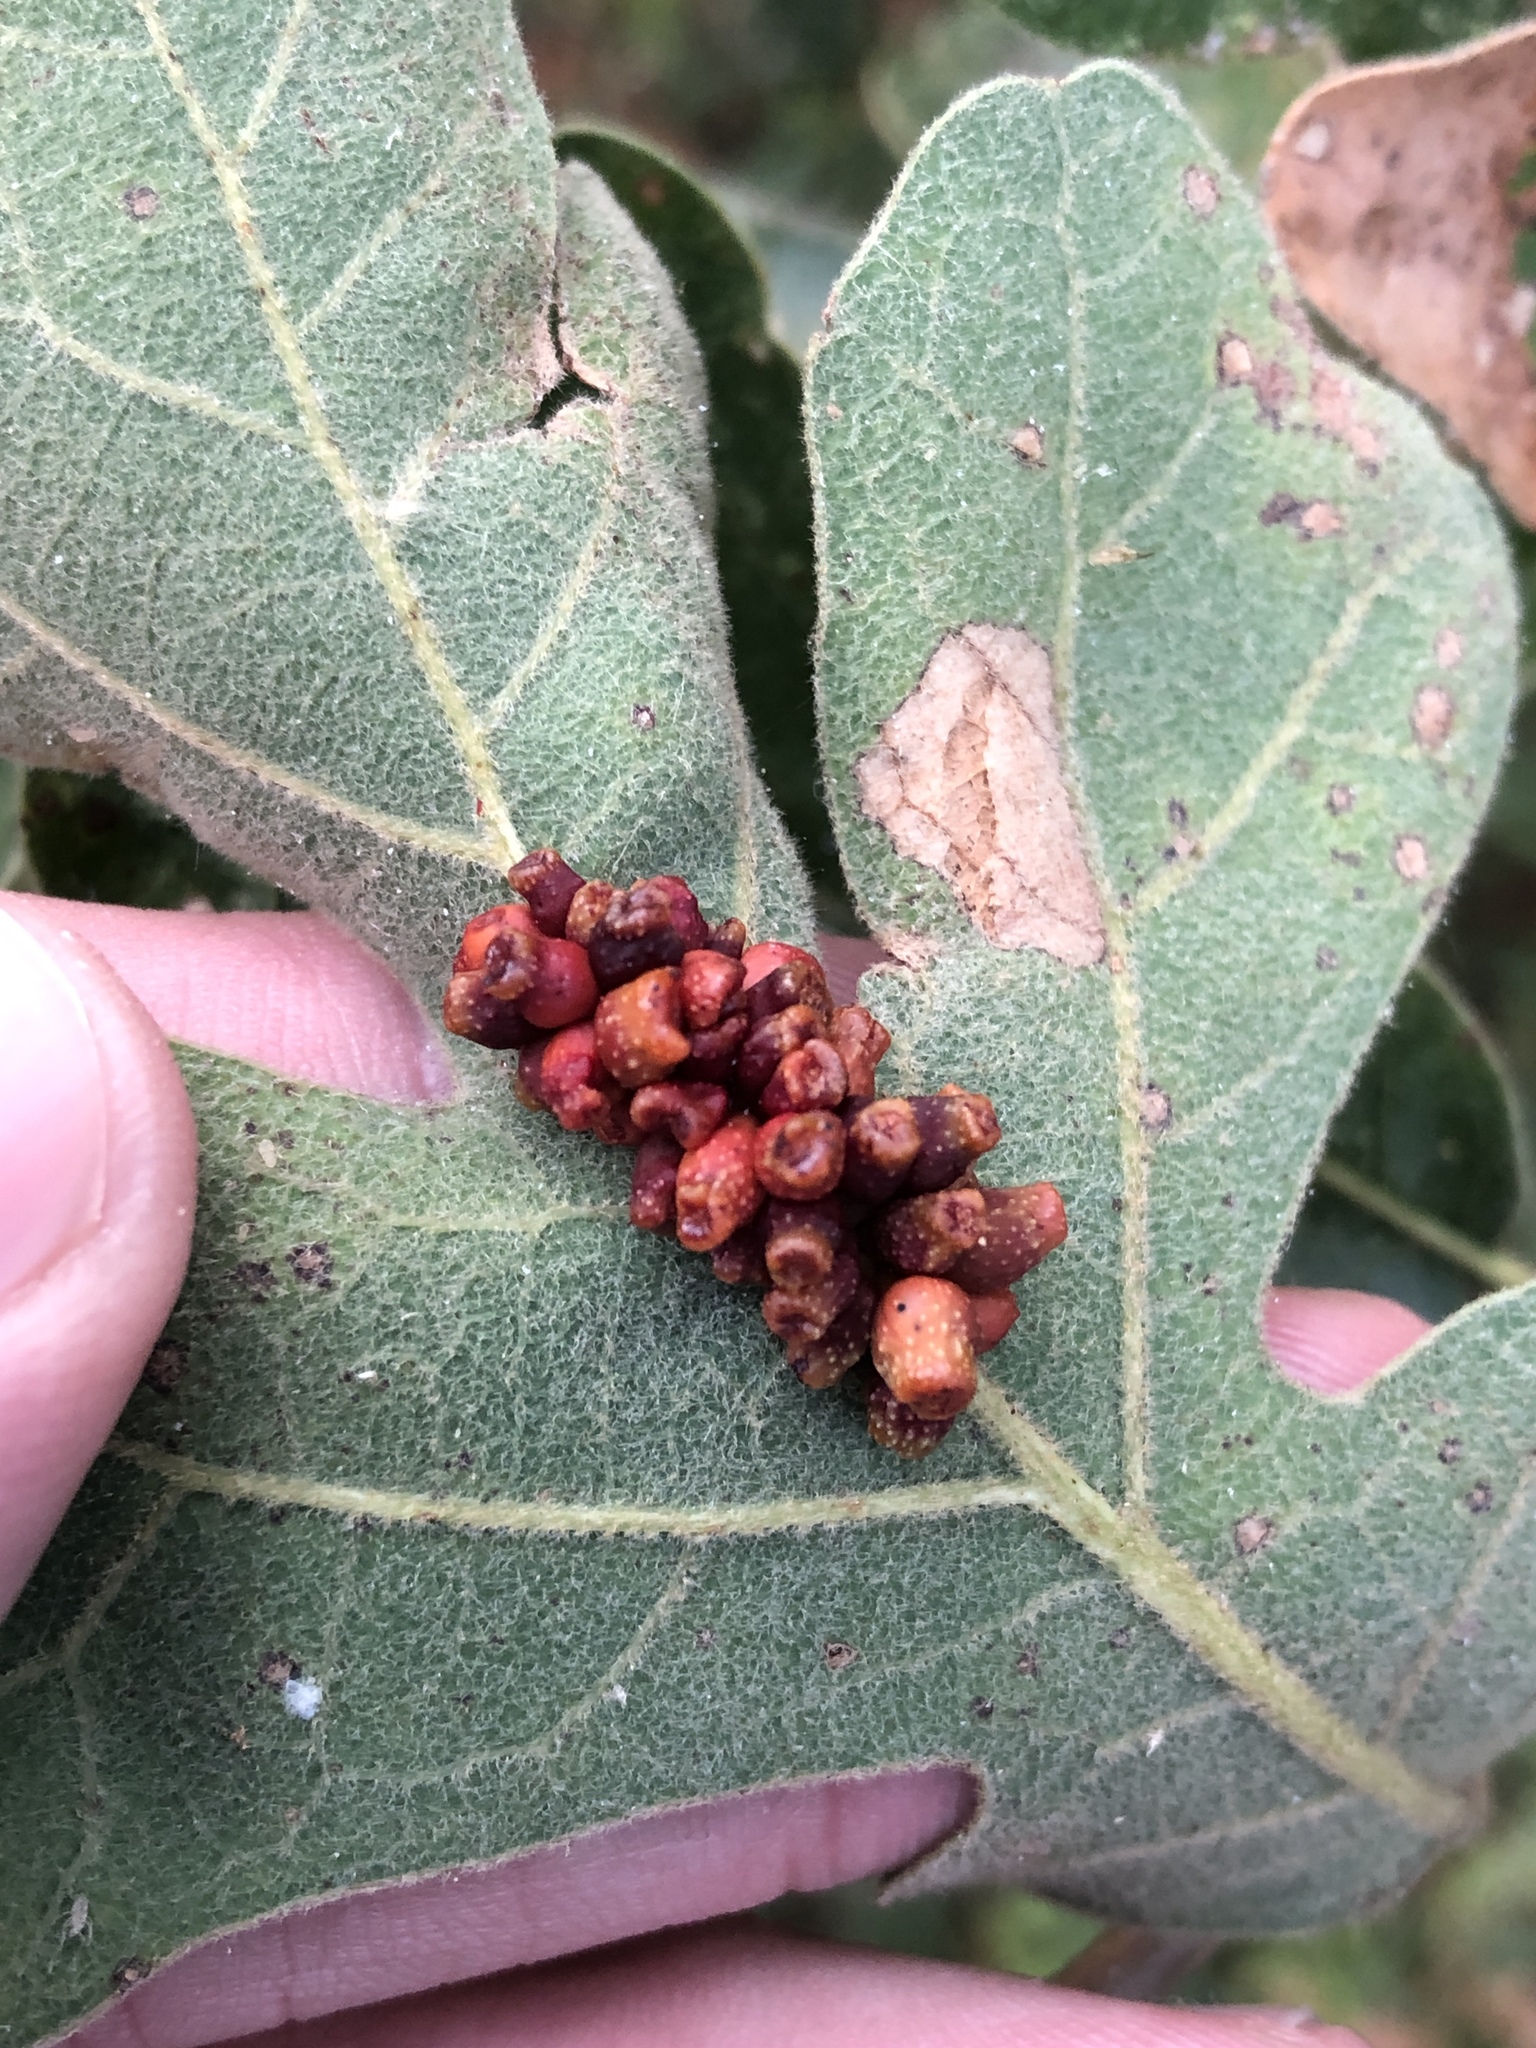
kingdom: Animalia
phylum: Arthropoda
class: Insecta
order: Hymenoptera
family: Cynipidae
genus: Andricus
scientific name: Andricus lustrans
